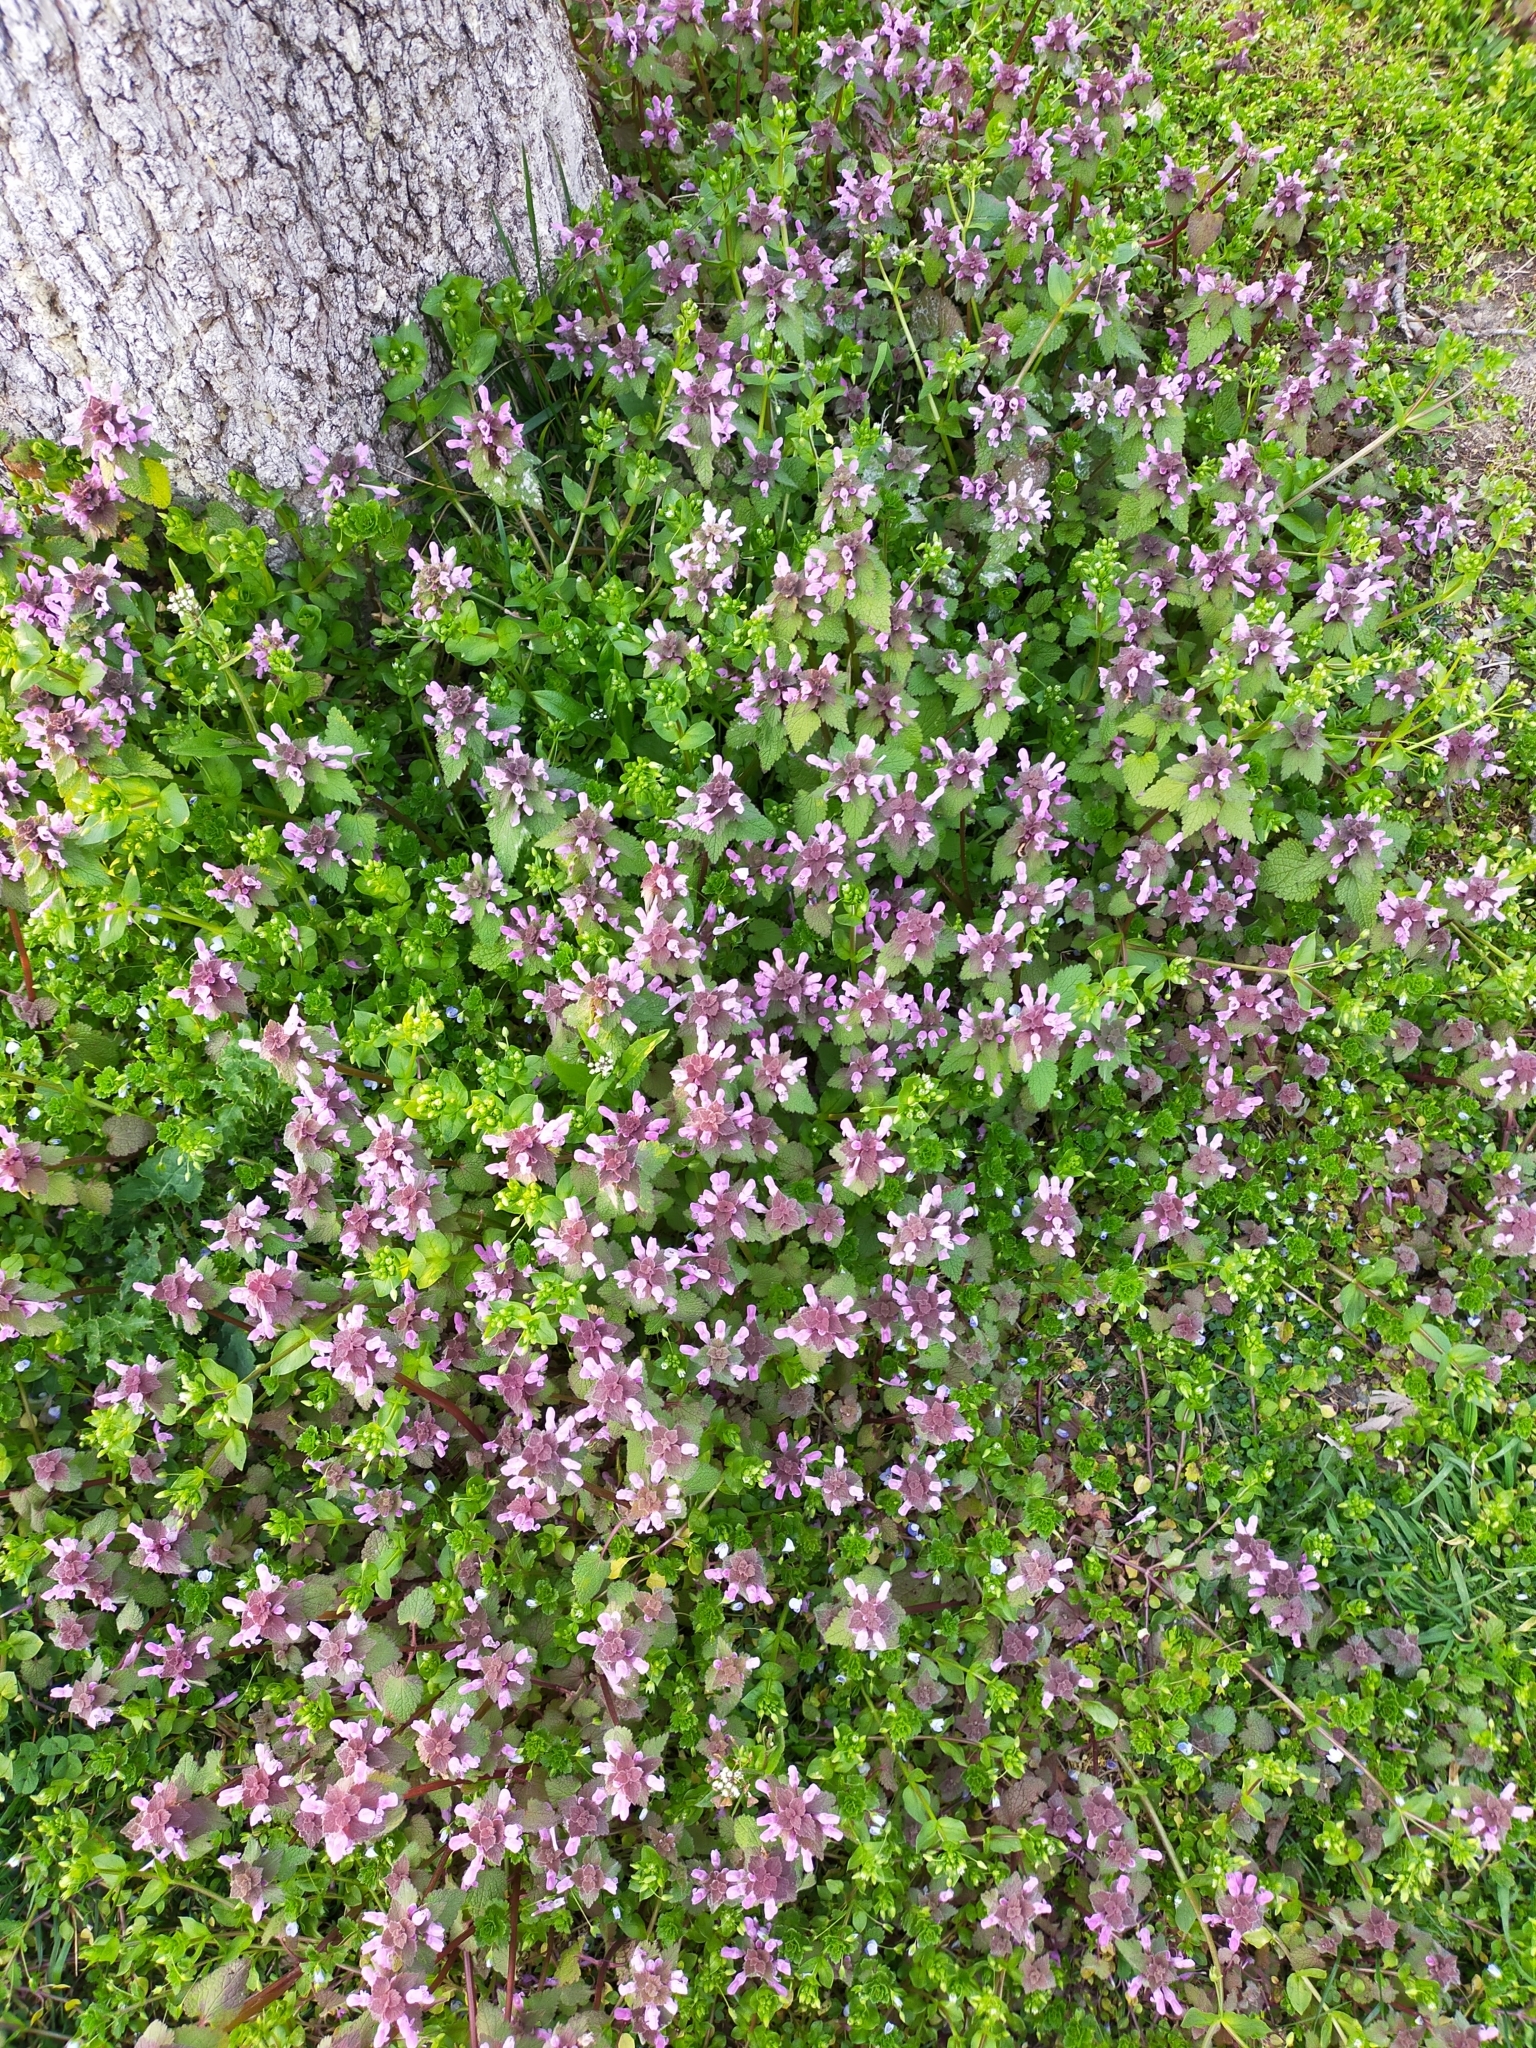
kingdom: Plantae
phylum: Tracheophyta
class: Magnoliopsida
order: Lamiales
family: Lamiaceae
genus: Lamium
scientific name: Lamium purpureum
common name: Red dead-nettle
